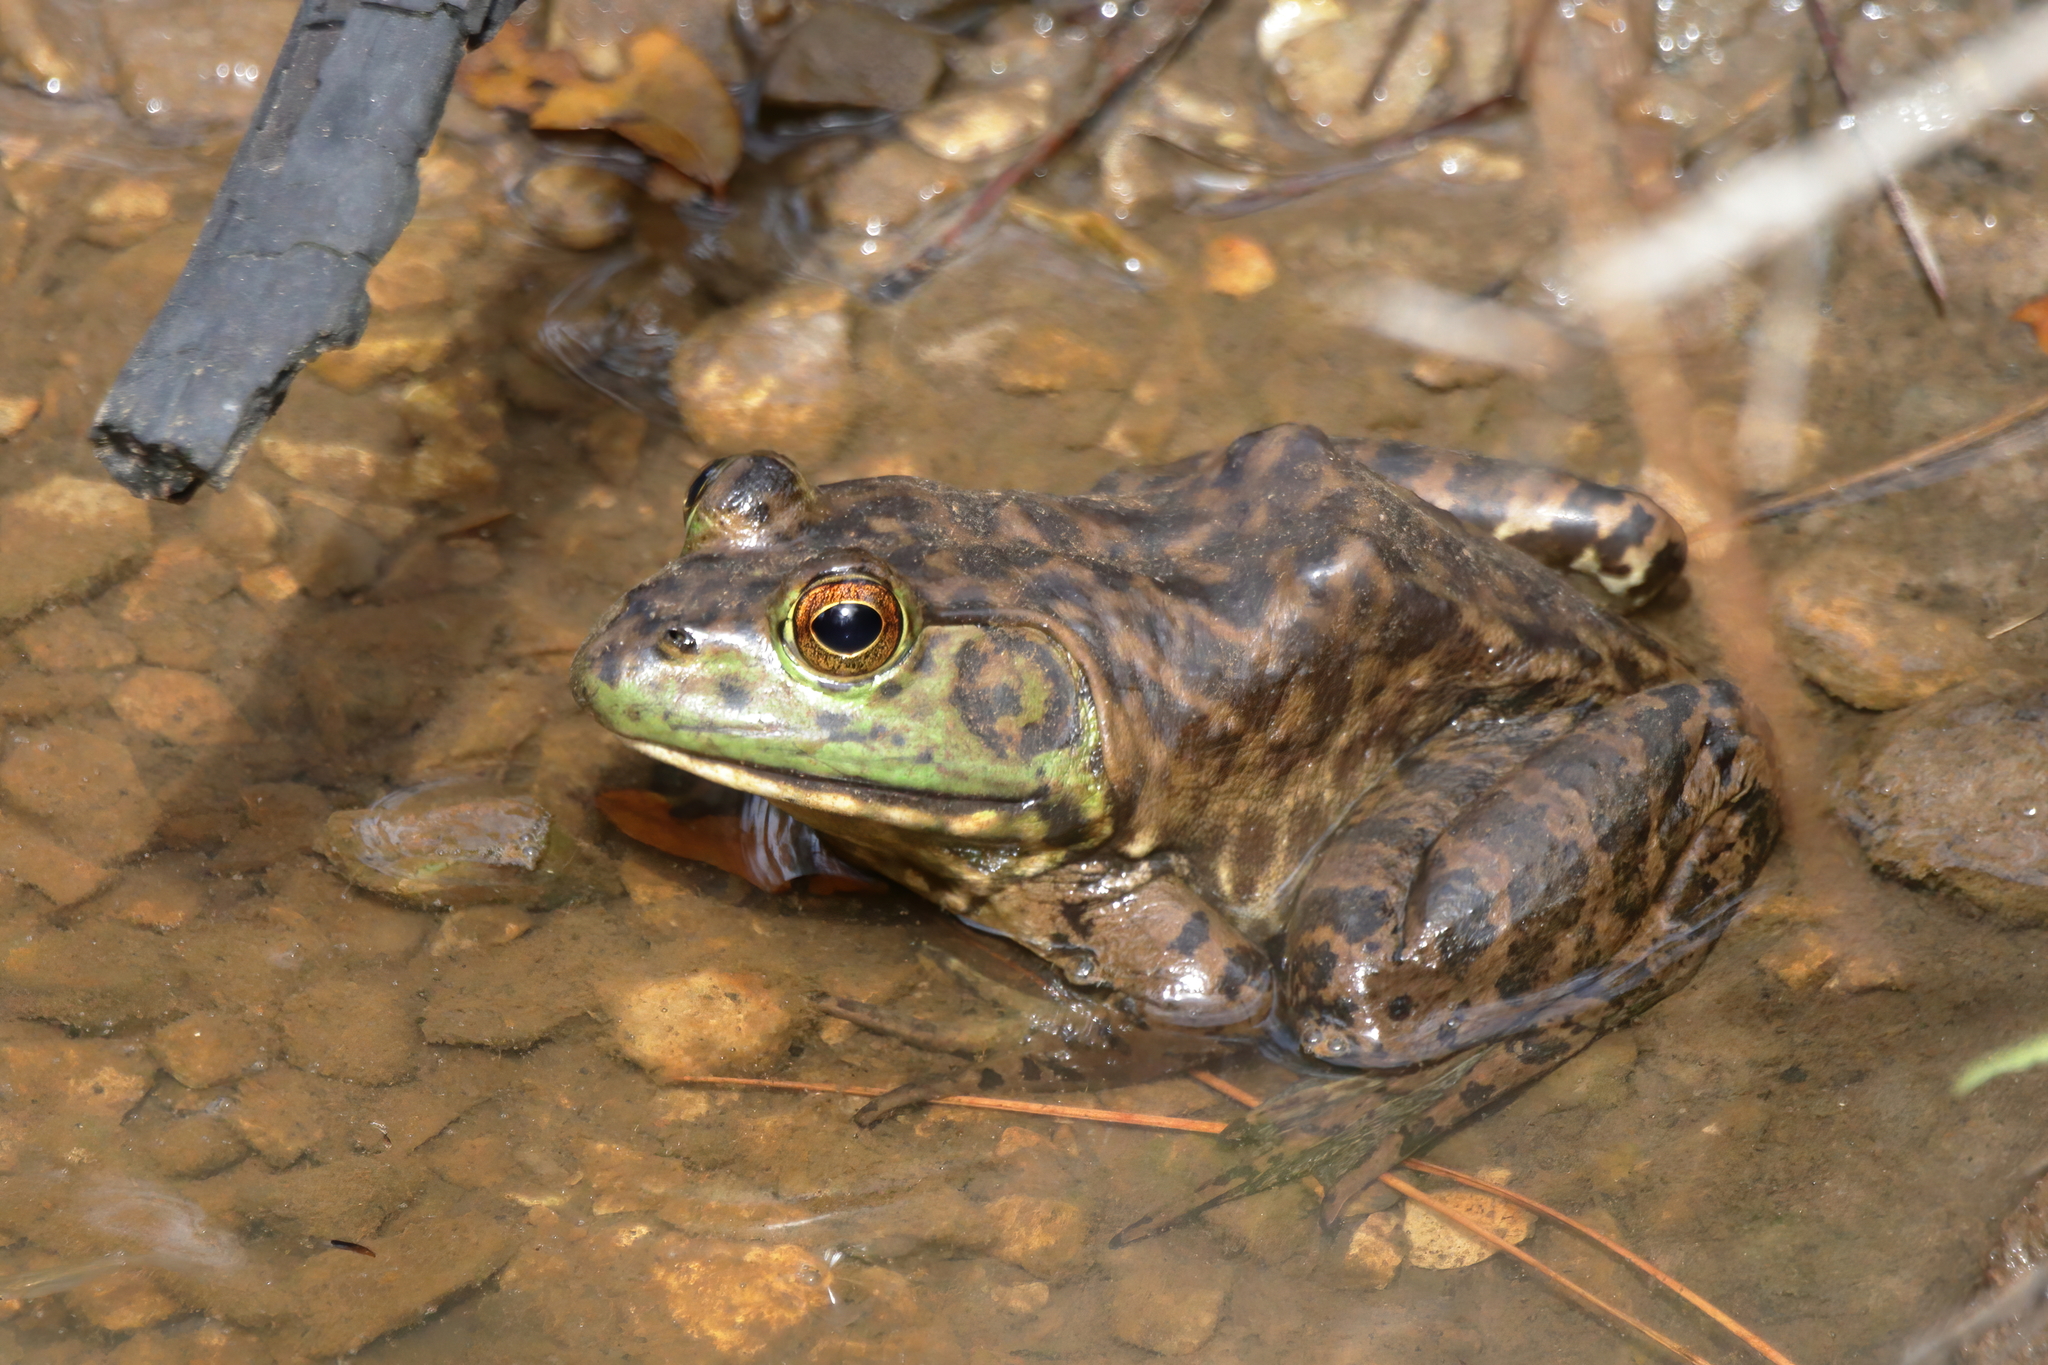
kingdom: Animalia
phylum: Chordata
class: Amphibia
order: Anura
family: Ranidae
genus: Lithobates
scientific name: Lithobates catesbeianus
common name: American bullfrog
